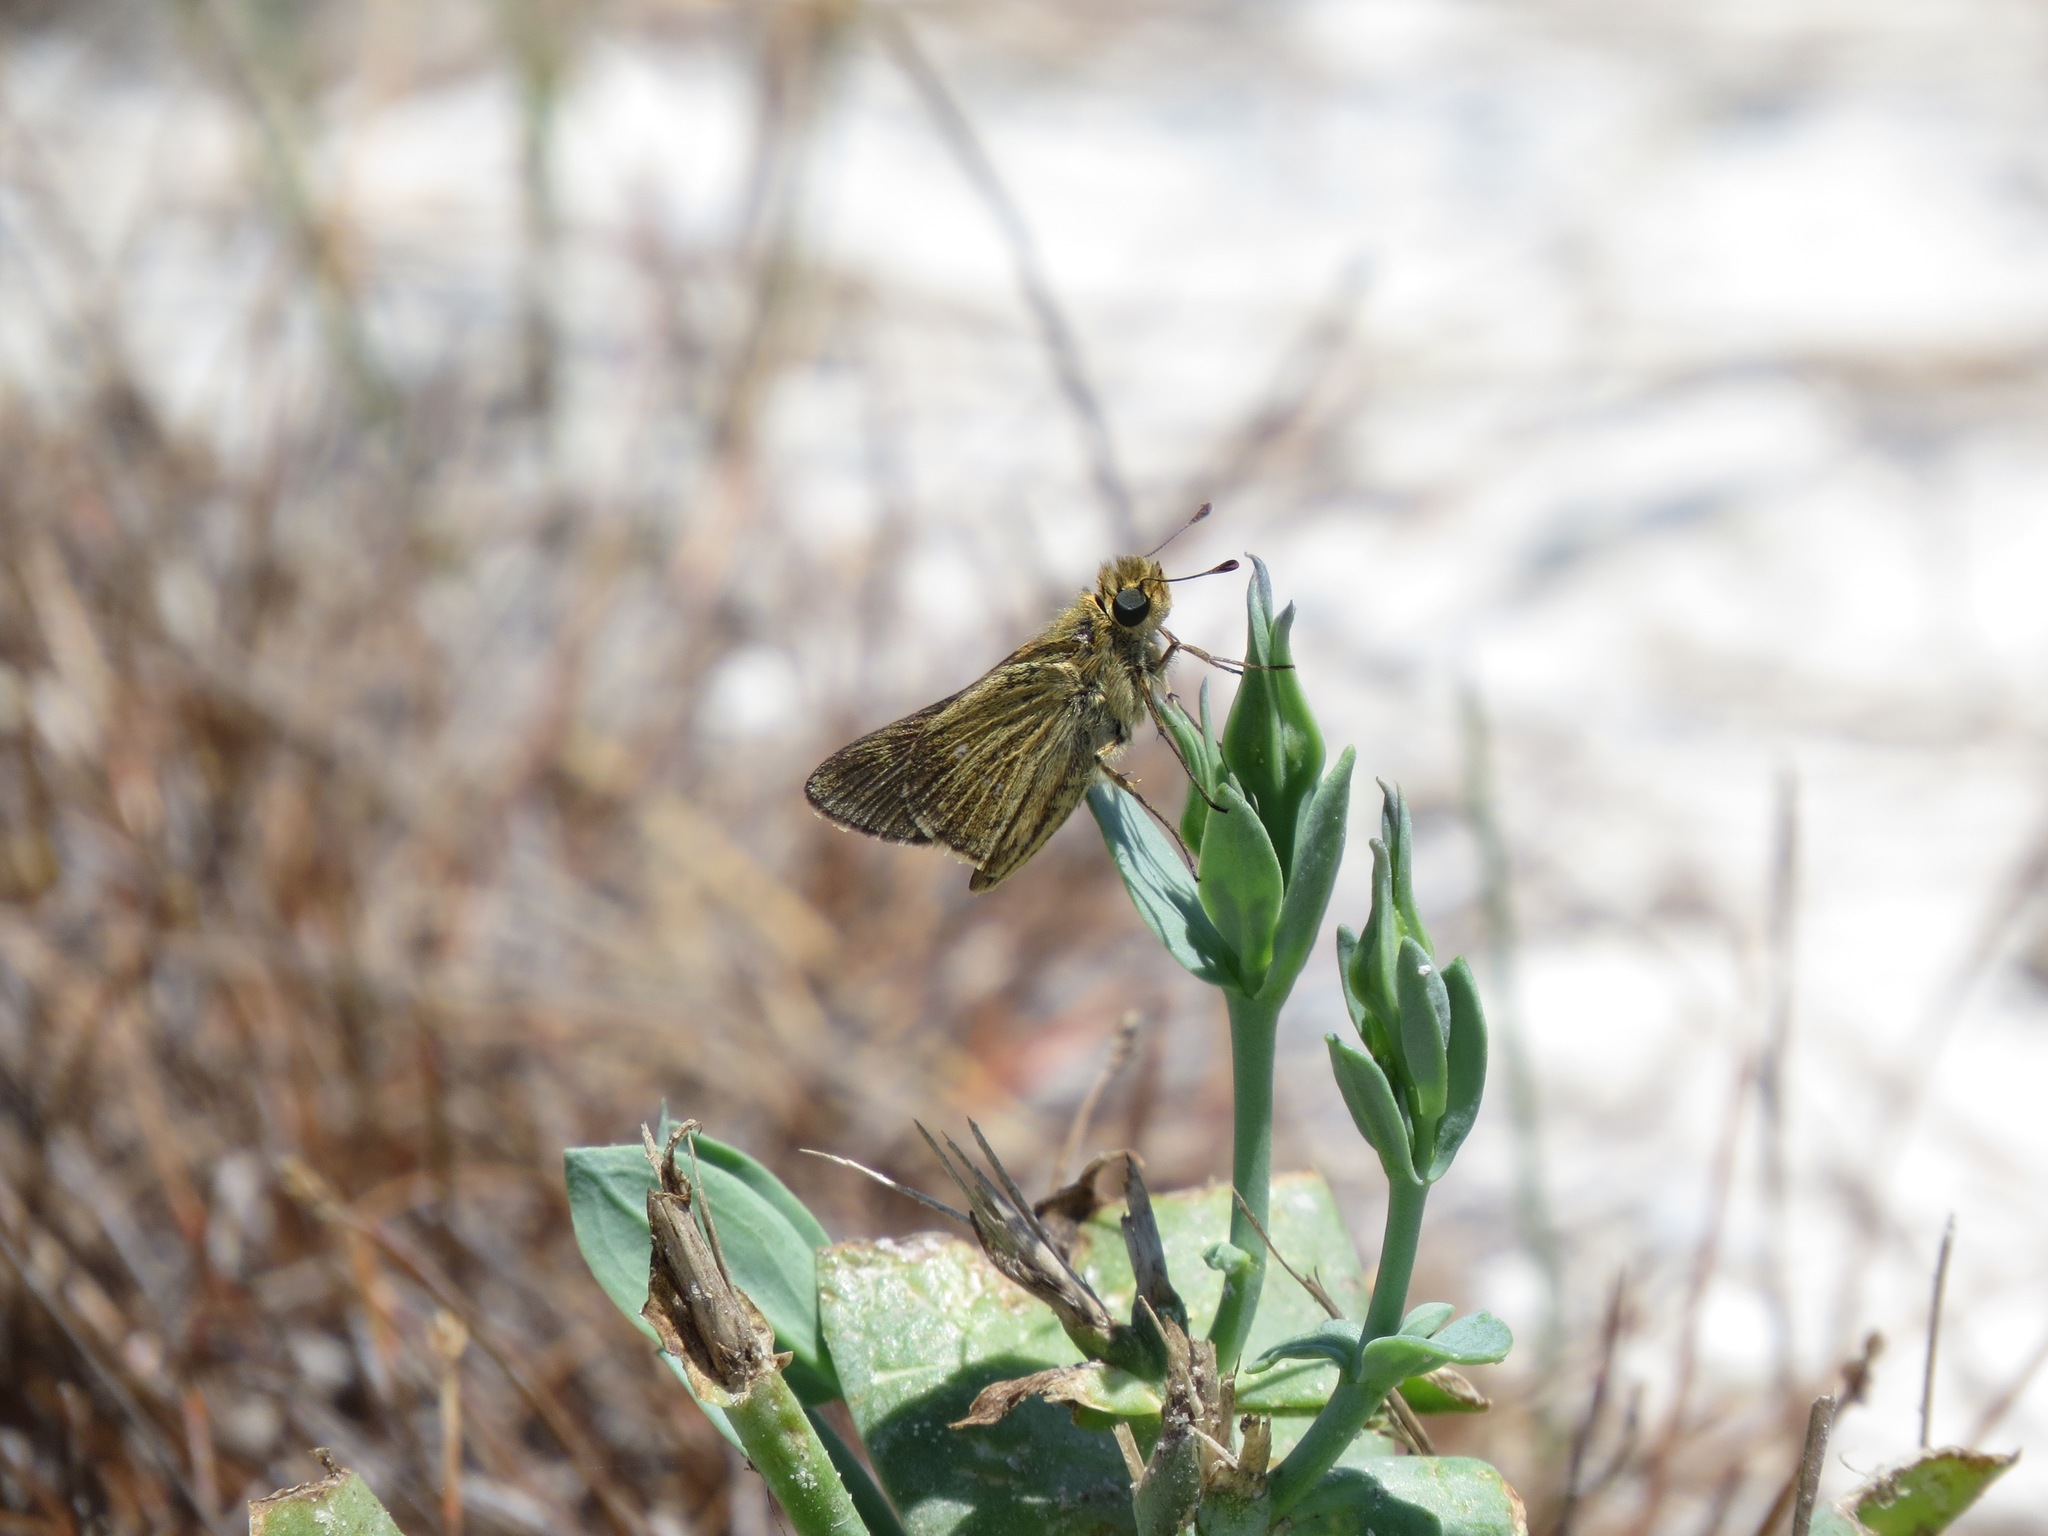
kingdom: Animalia
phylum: Arthropoda
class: Insecta
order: Lepidoptera
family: Hesperiidae
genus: Panoquina
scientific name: Panoquina panoquinoides
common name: Beach skipper
